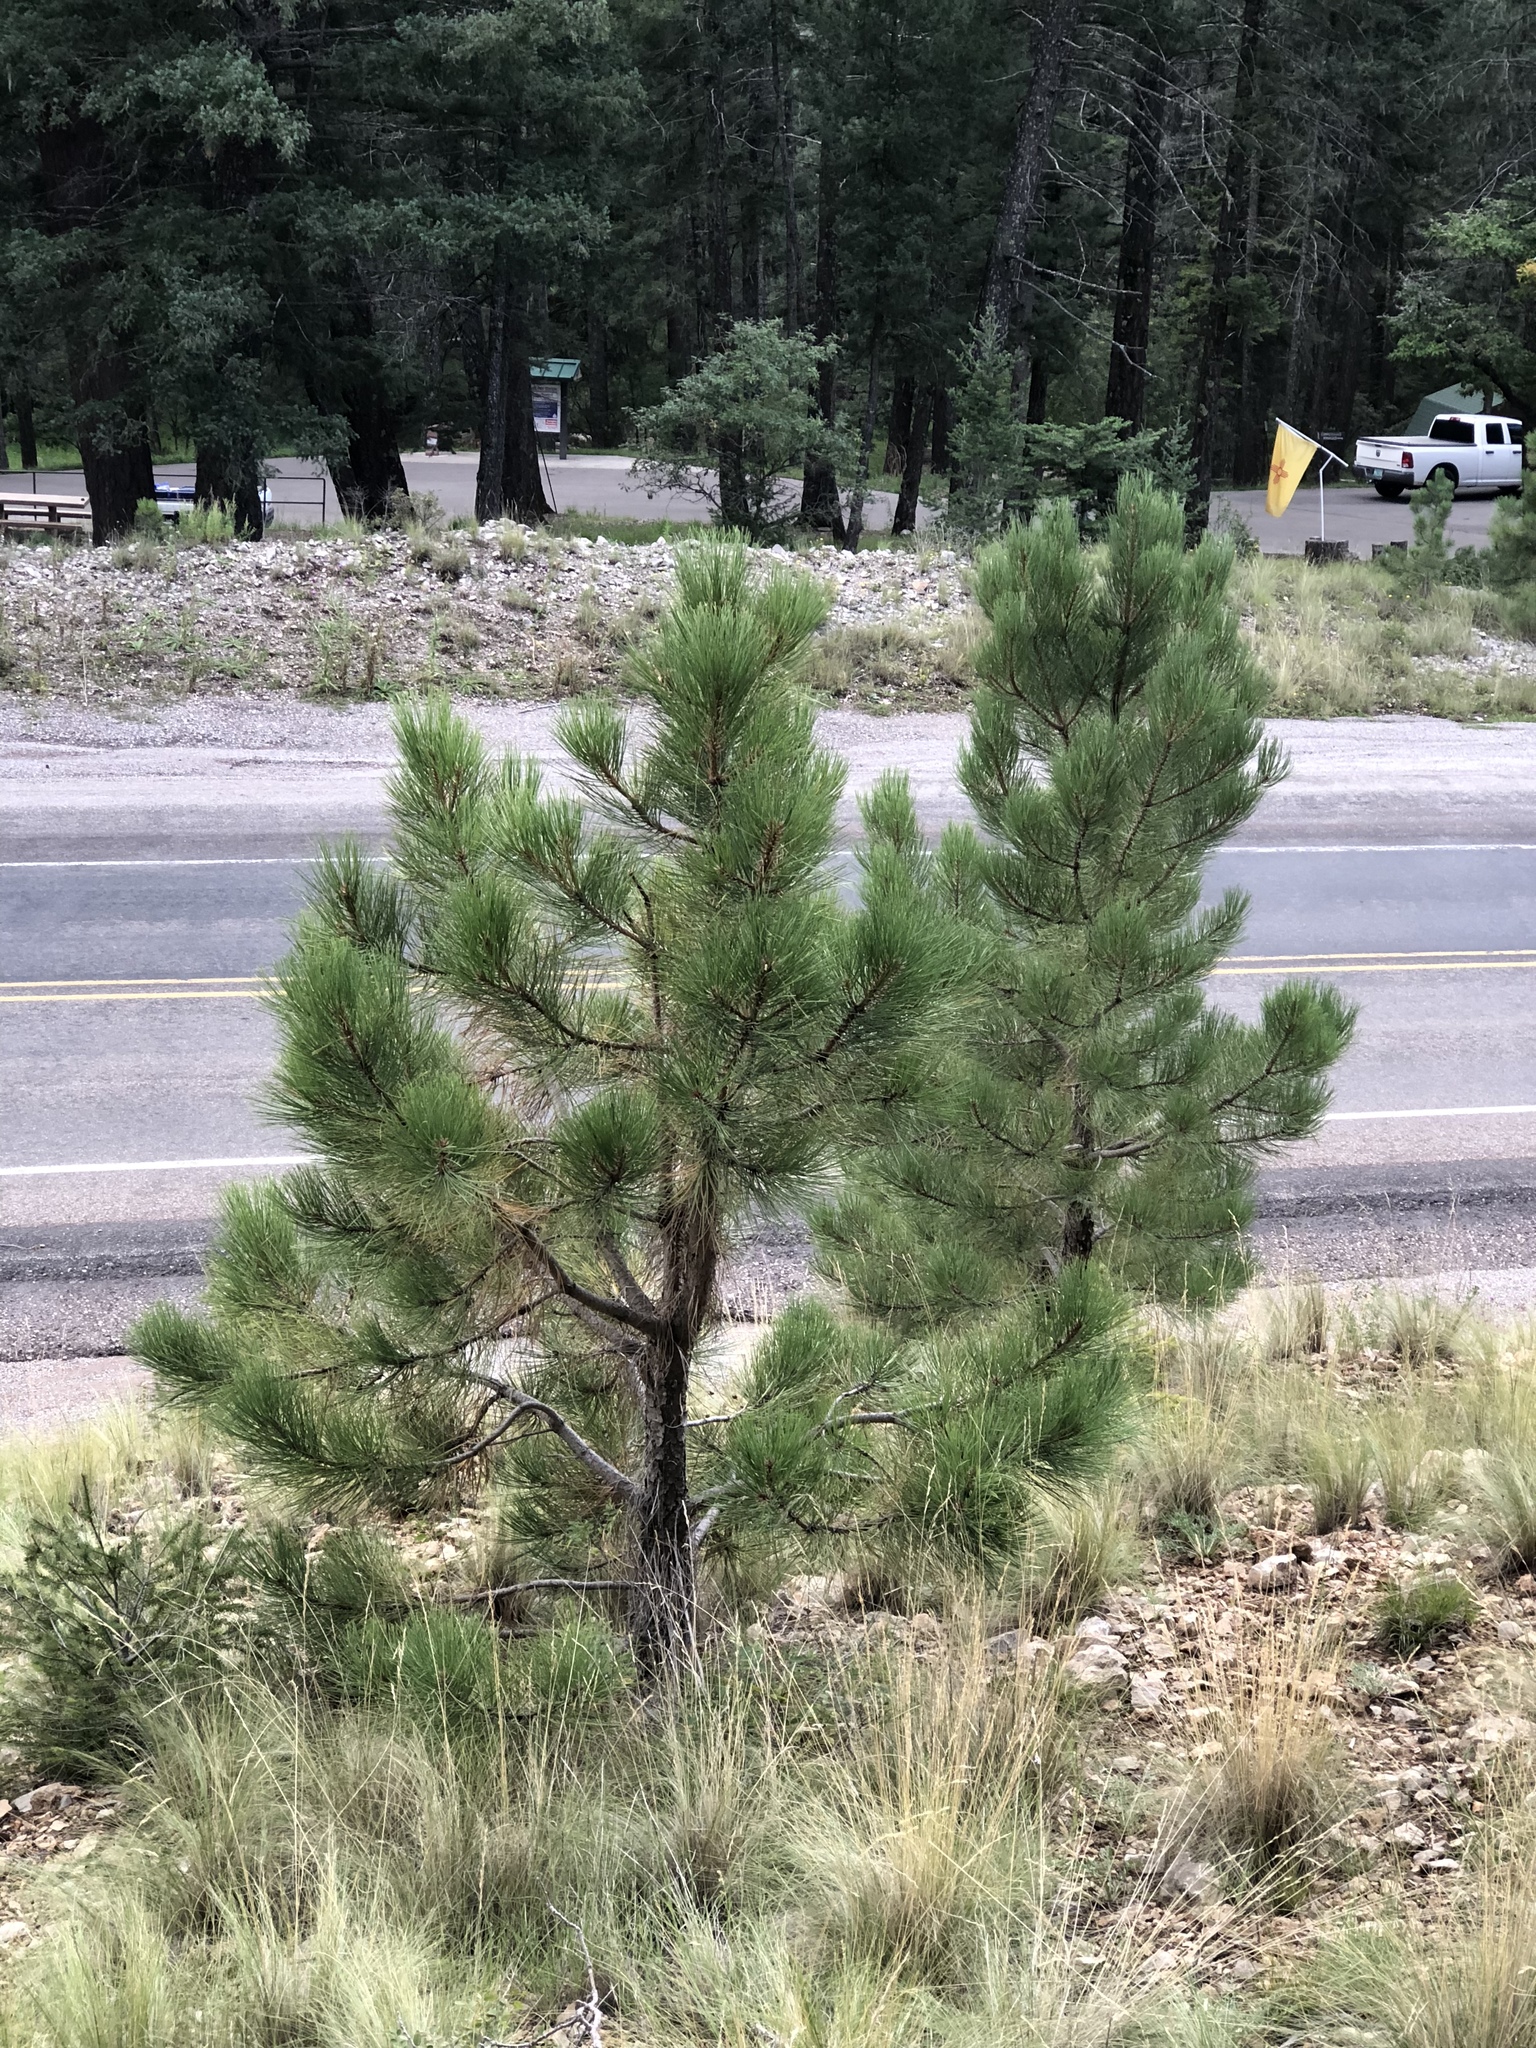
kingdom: Plantae
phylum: Tracheophyta
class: Pinopsida
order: Pinales
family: Pinaceae
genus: Pinus
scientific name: Pinus ponderosa
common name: Western yellow-pine
